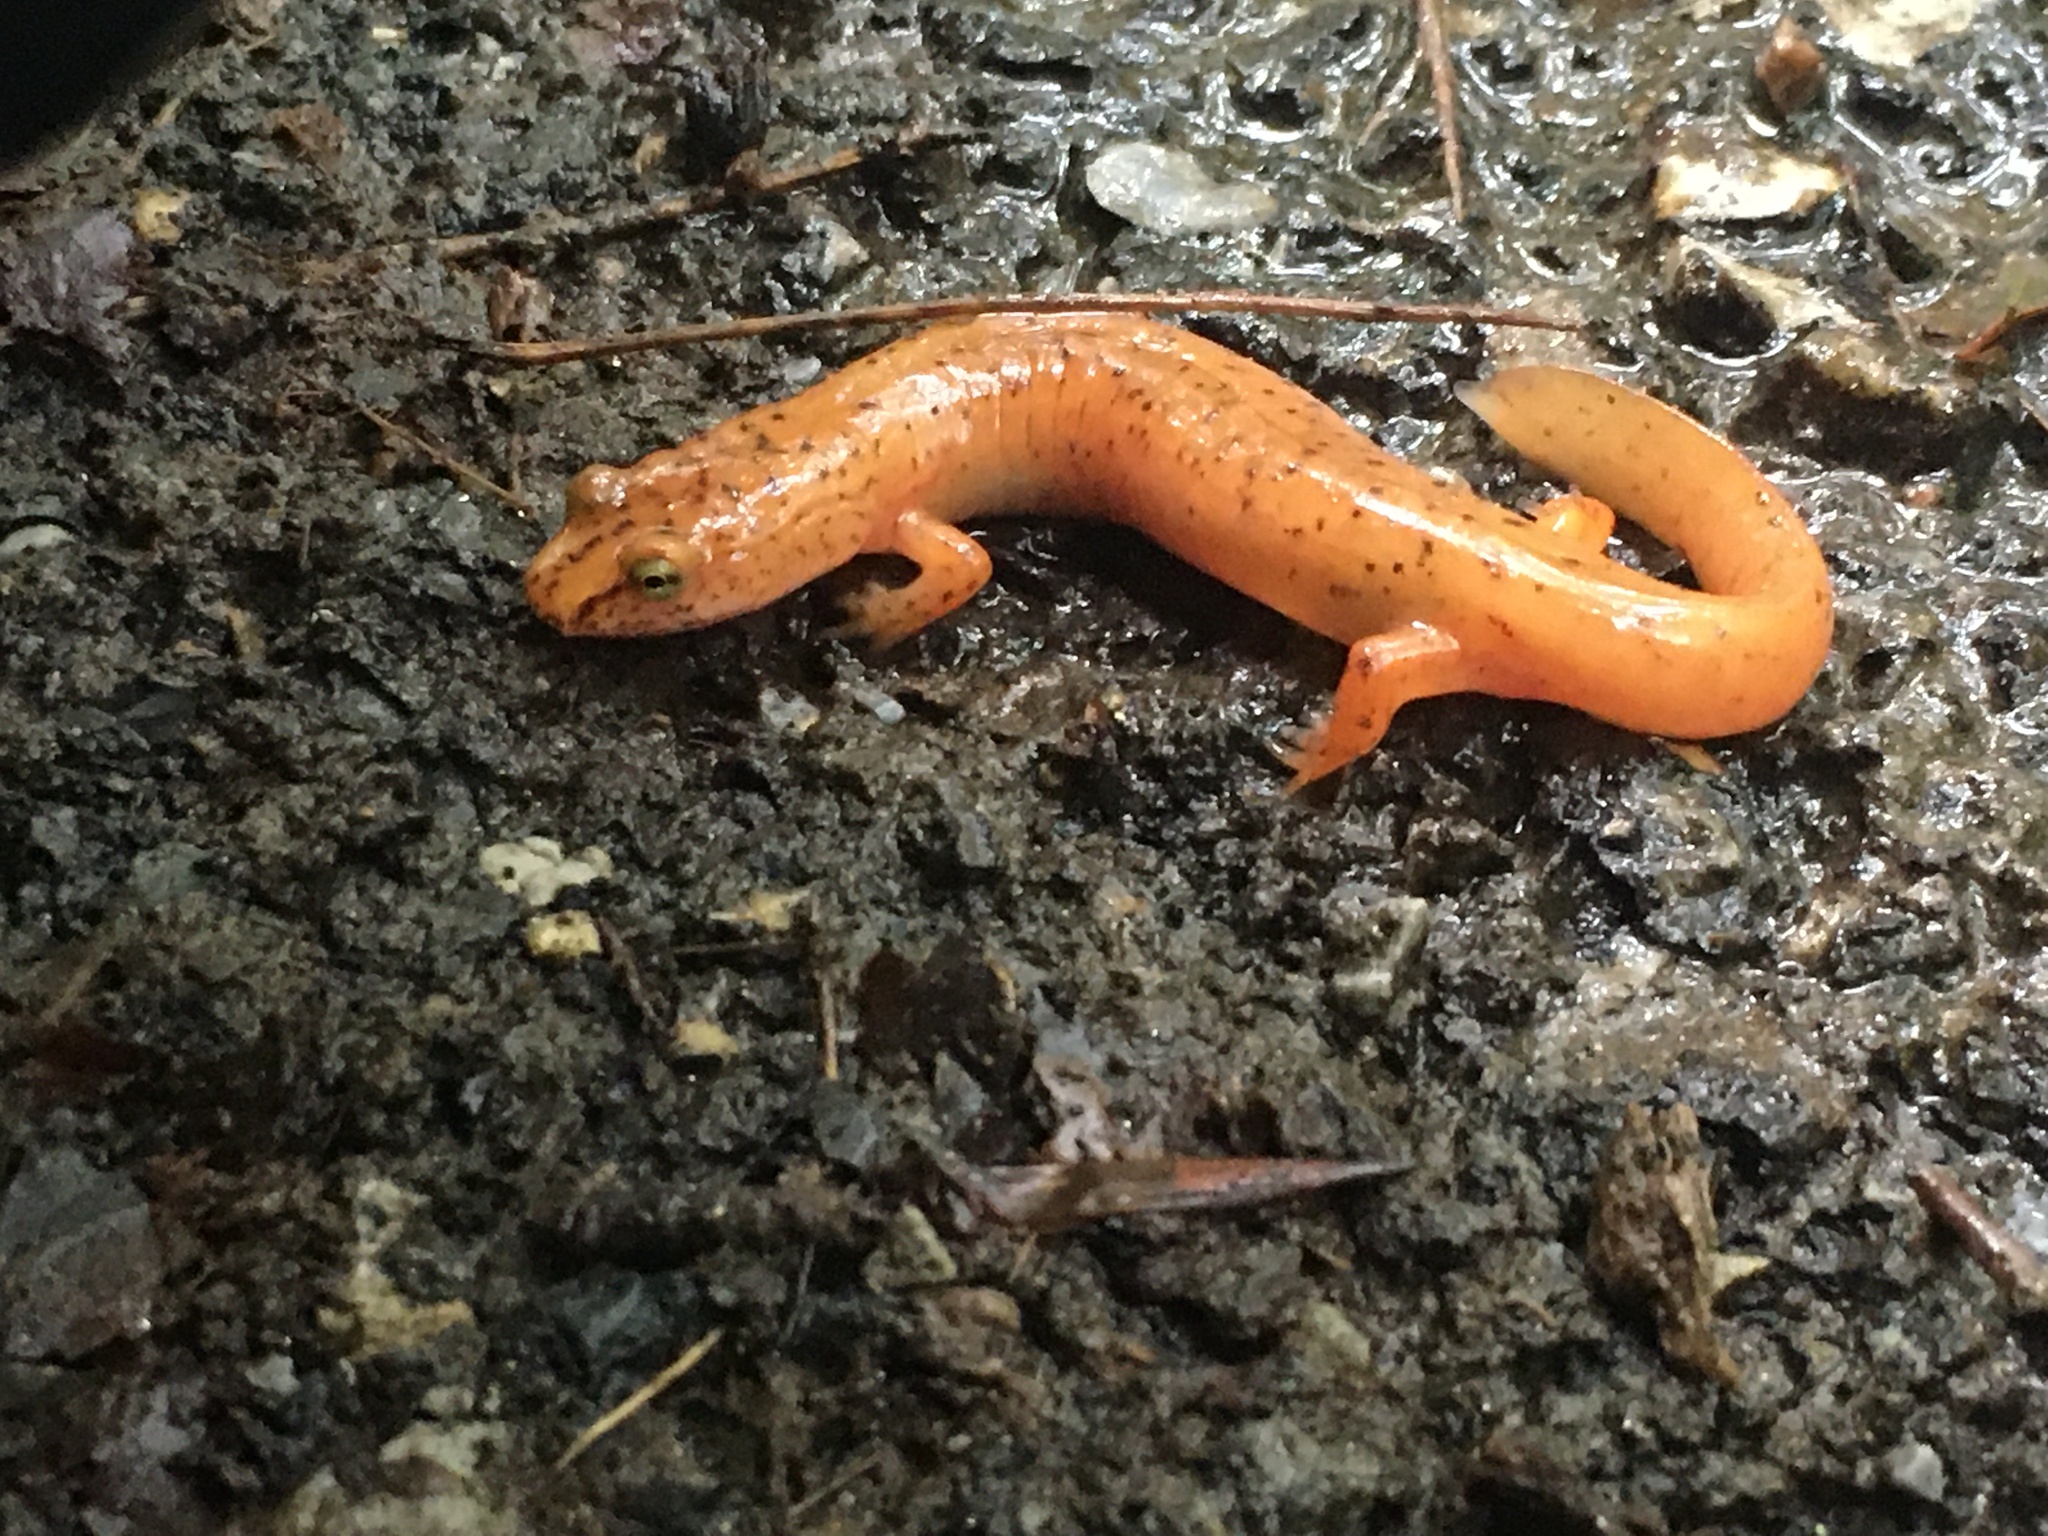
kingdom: Animalia
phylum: Chordata
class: Amphibia
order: Caudata
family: Plethodontidae
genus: Gyrinophilus
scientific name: Gyrinophilus porphyriticus
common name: Spring salamander
